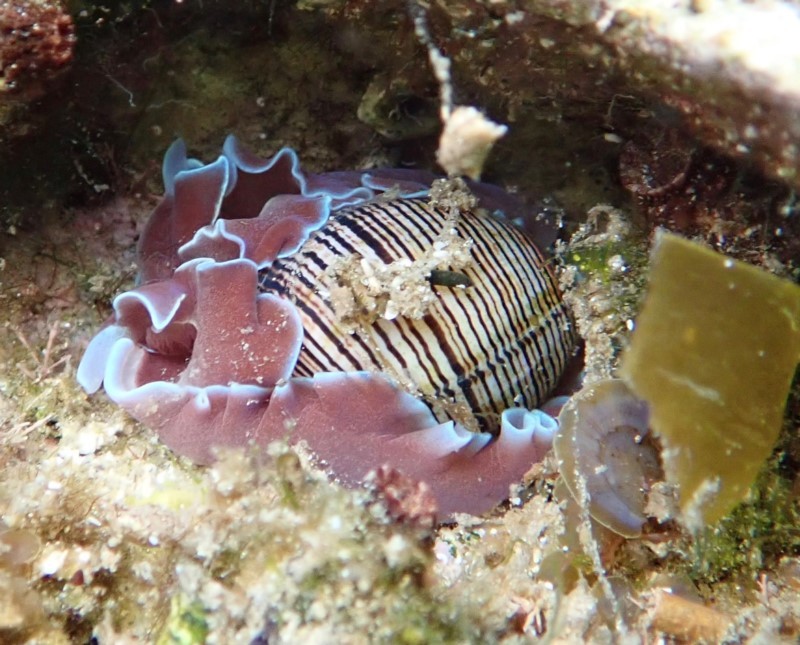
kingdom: Animalia
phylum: Mollusca
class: Gastropoda
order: Cephalaspidea
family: Aplustridae
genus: Hydatina
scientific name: Hydatina physis
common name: Brown-line paperbubble
